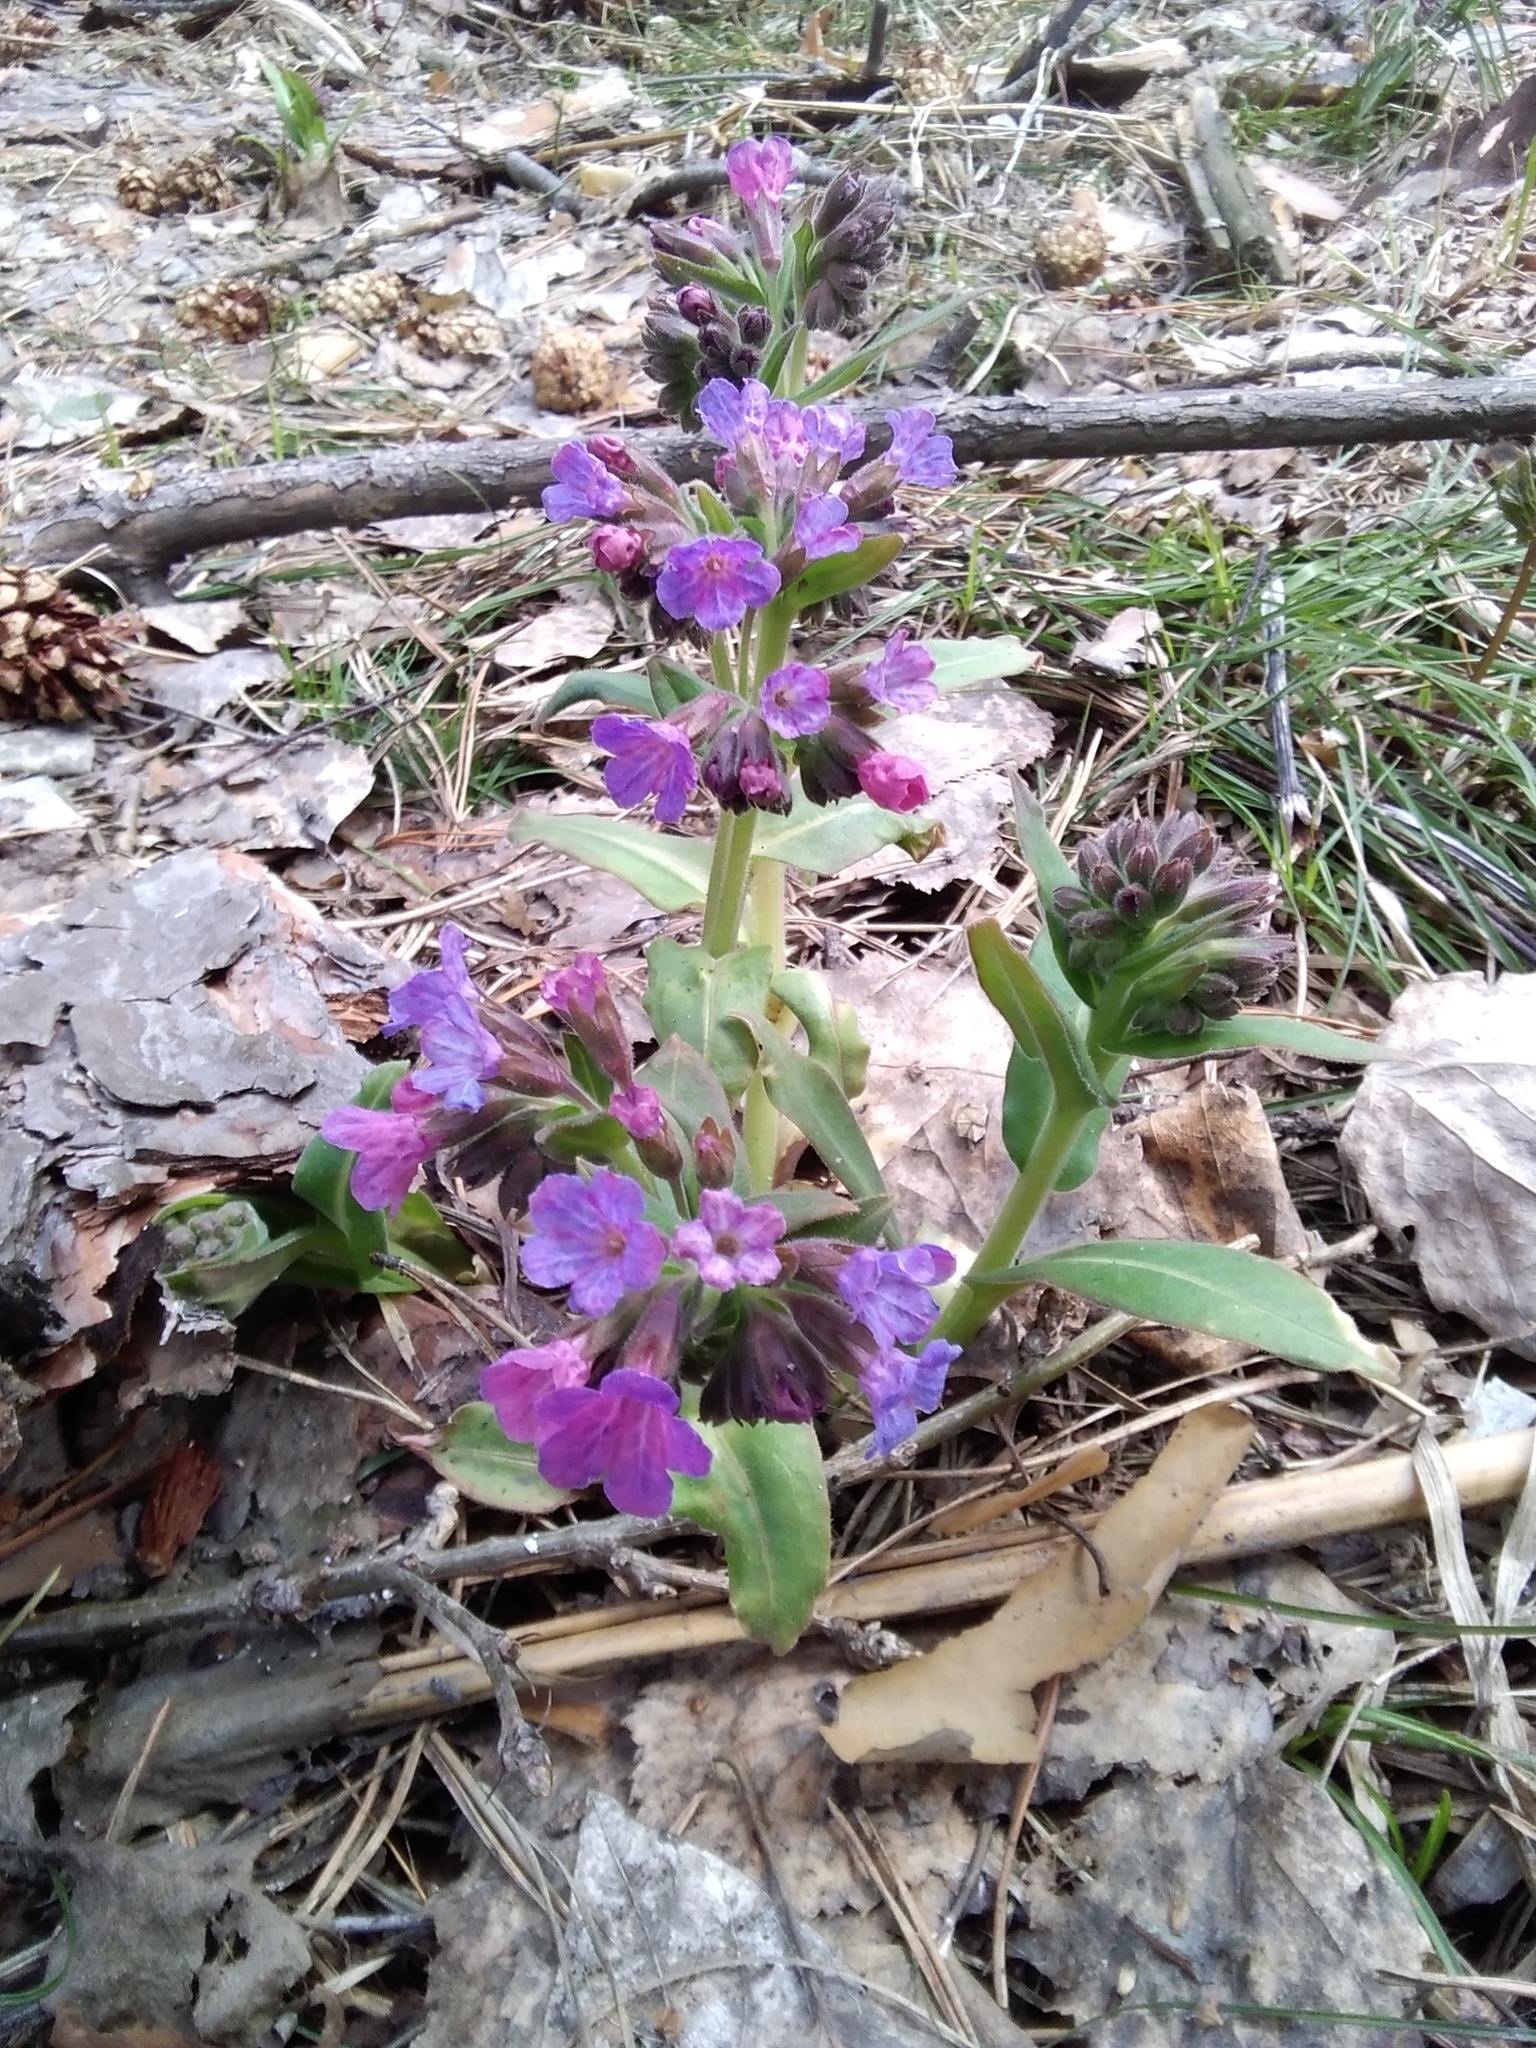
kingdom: Plantae
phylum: Tracheophyta
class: Magnoliopsida
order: Boraginales
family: Boraginaceae
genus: Pulmonaria
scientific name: Pulmonaria mollis
